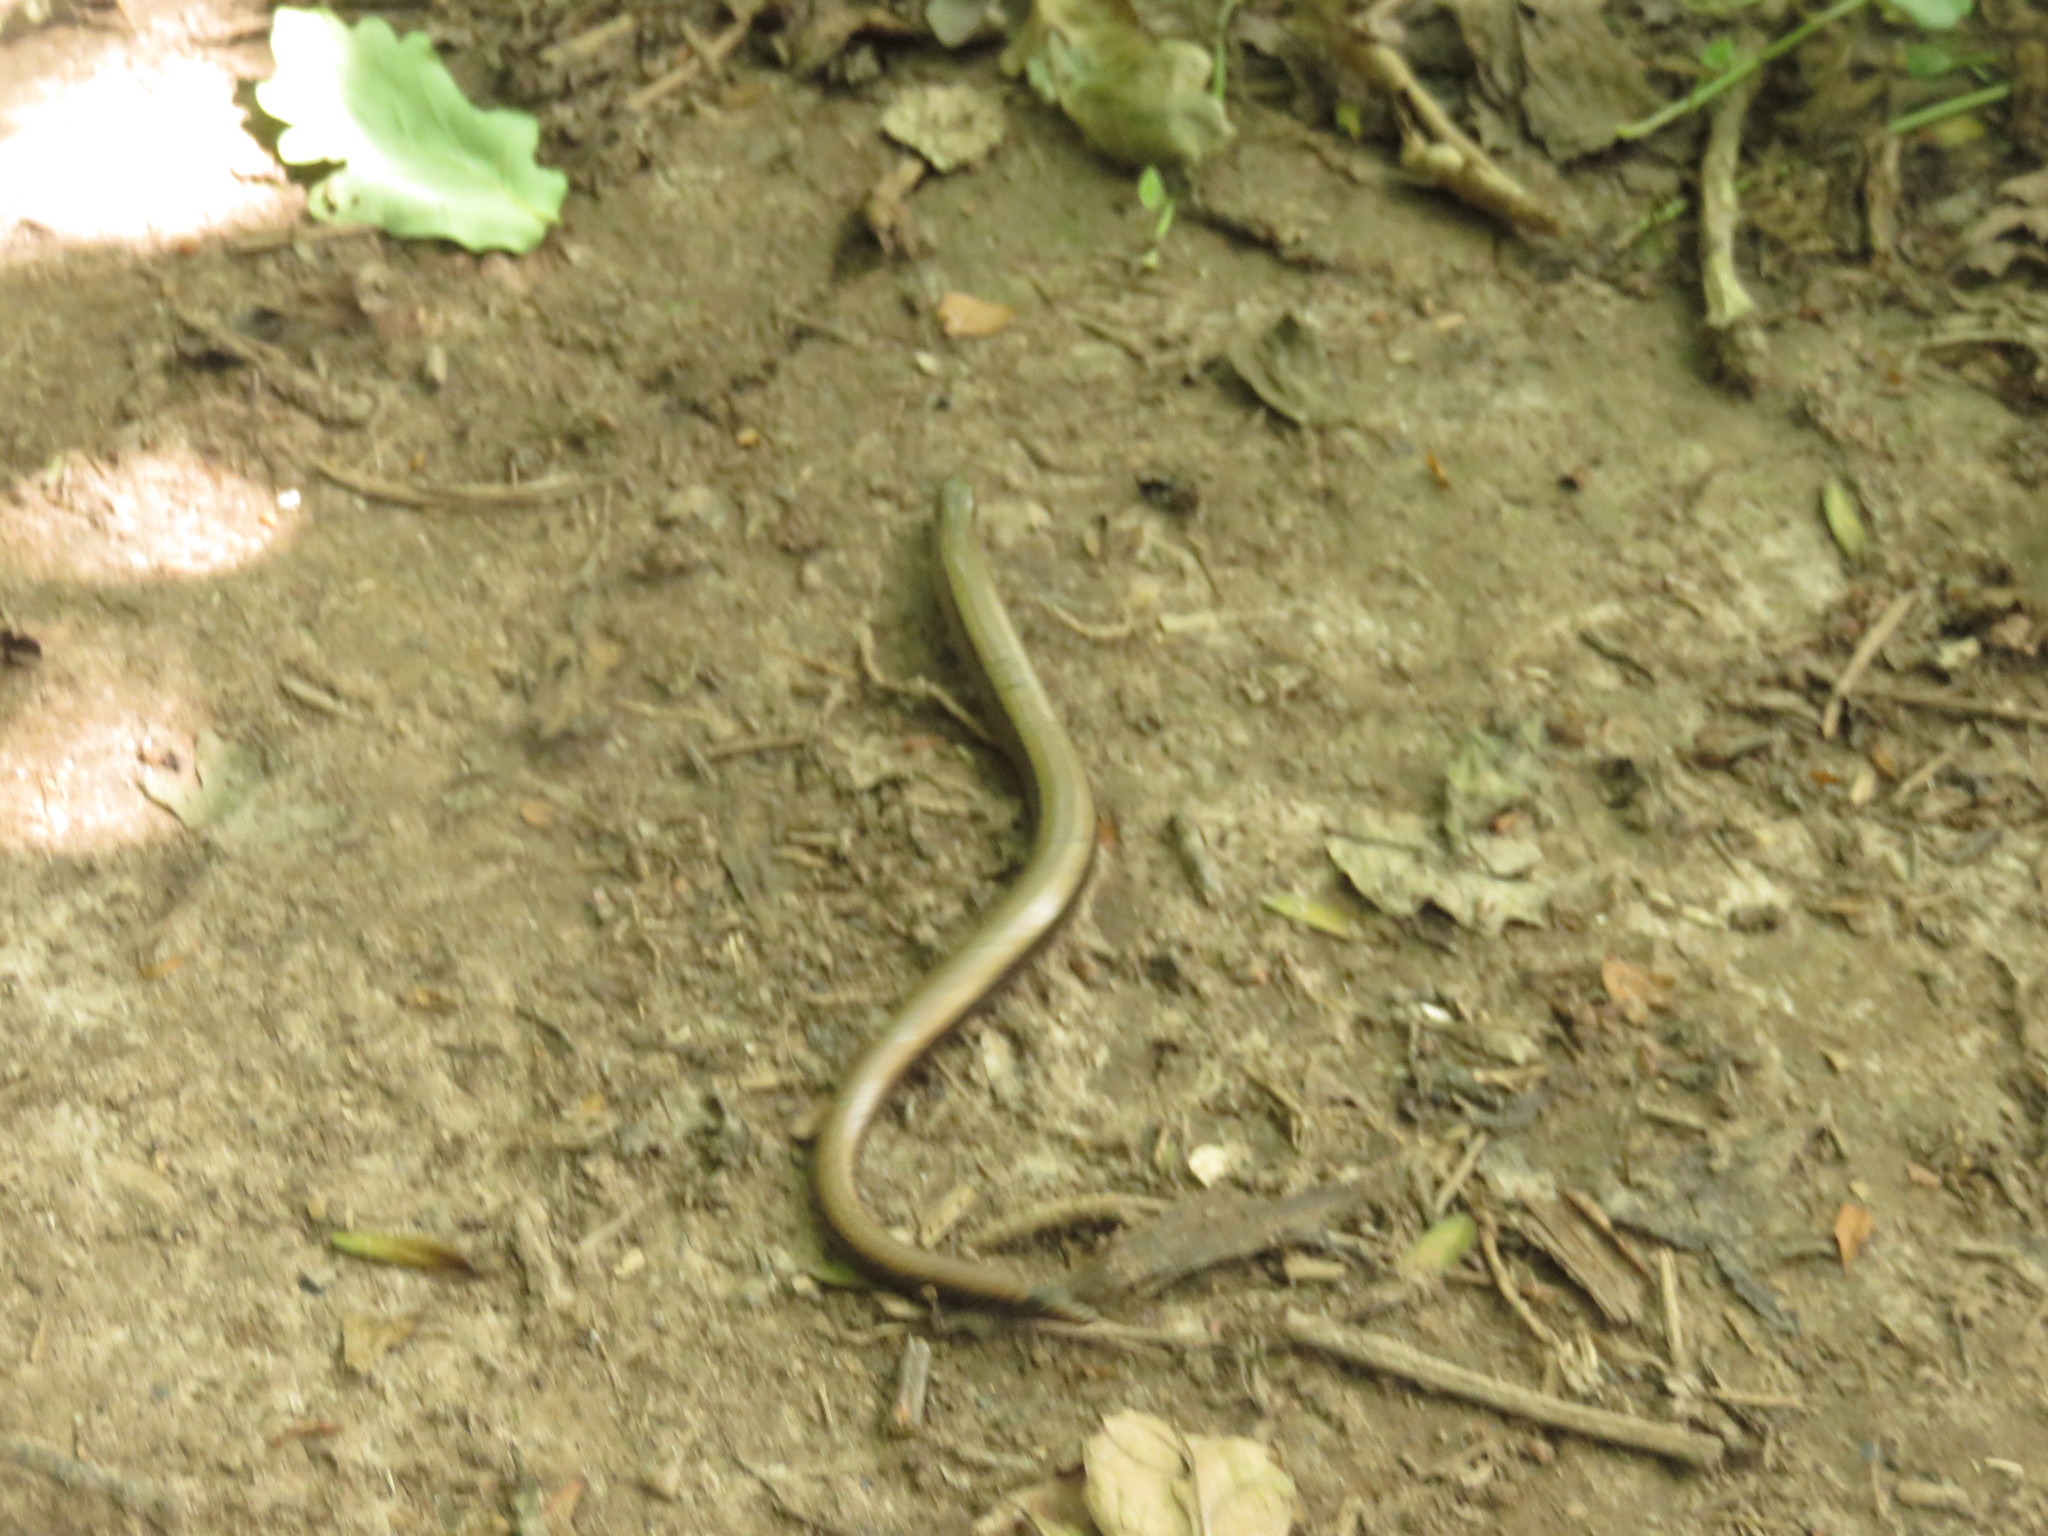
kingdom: Animalia
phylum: Chordata
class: Squamata
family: Anguidae
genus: Anguis
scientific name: Anguis fragilis
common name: Slow worm
